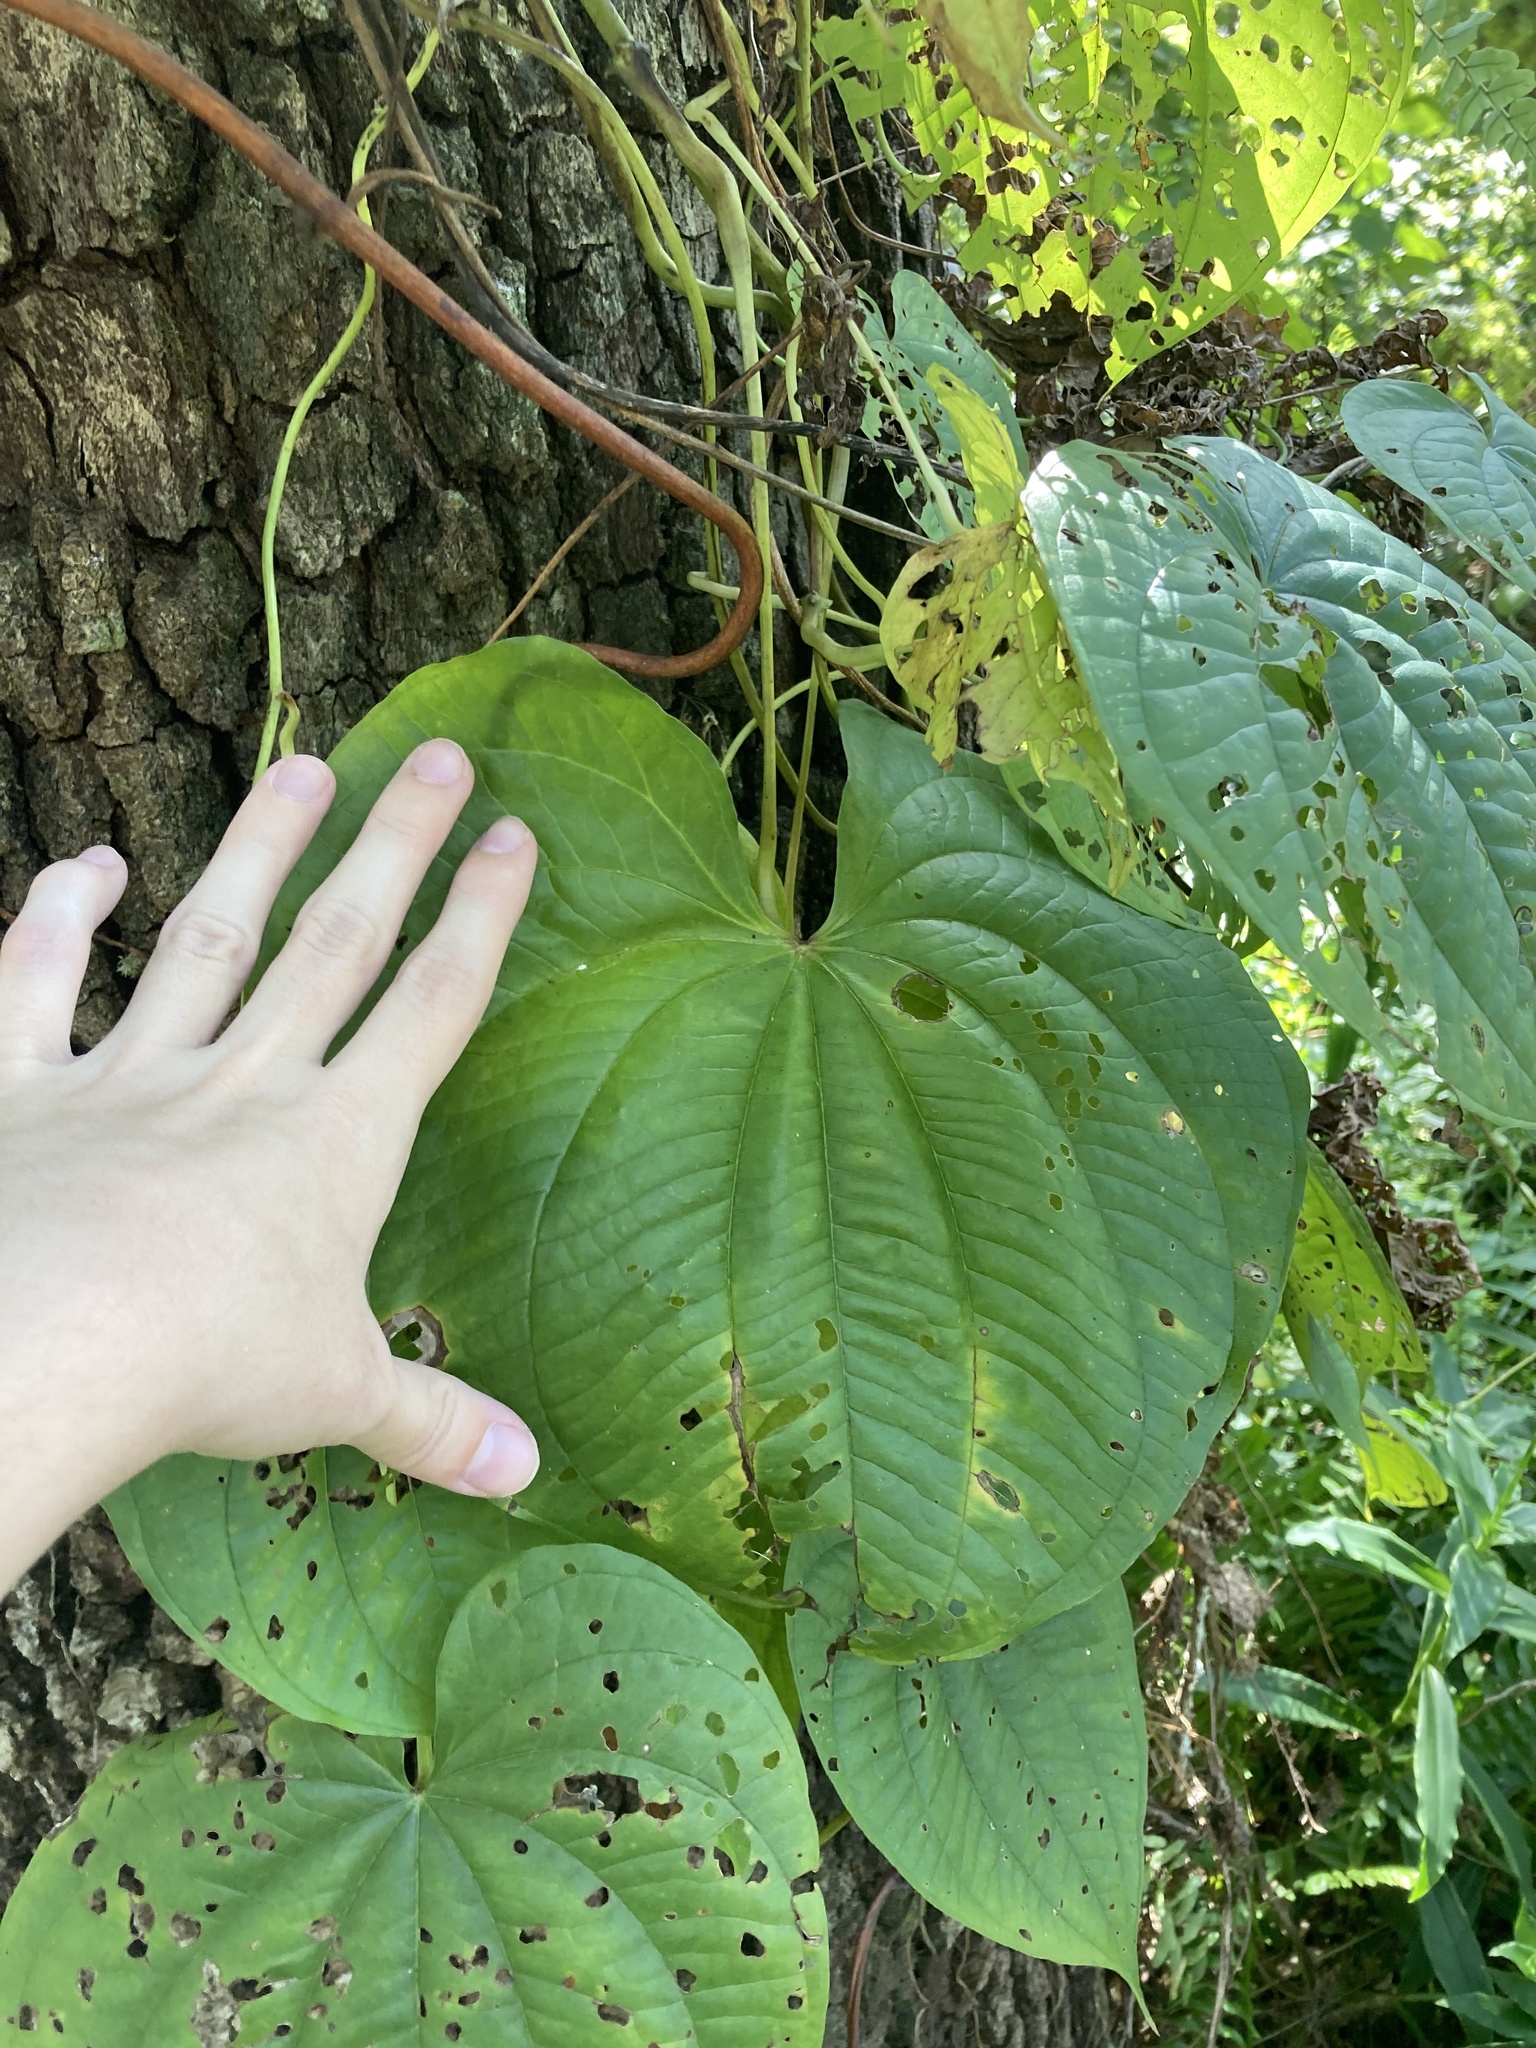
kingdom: Plantae
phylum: Tracheophyta
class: Liliopsida
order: Dioscoreales
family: Dioscoreaceae
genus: Dioscorea
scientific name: Dioscorea bulbifera
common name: Air yam
